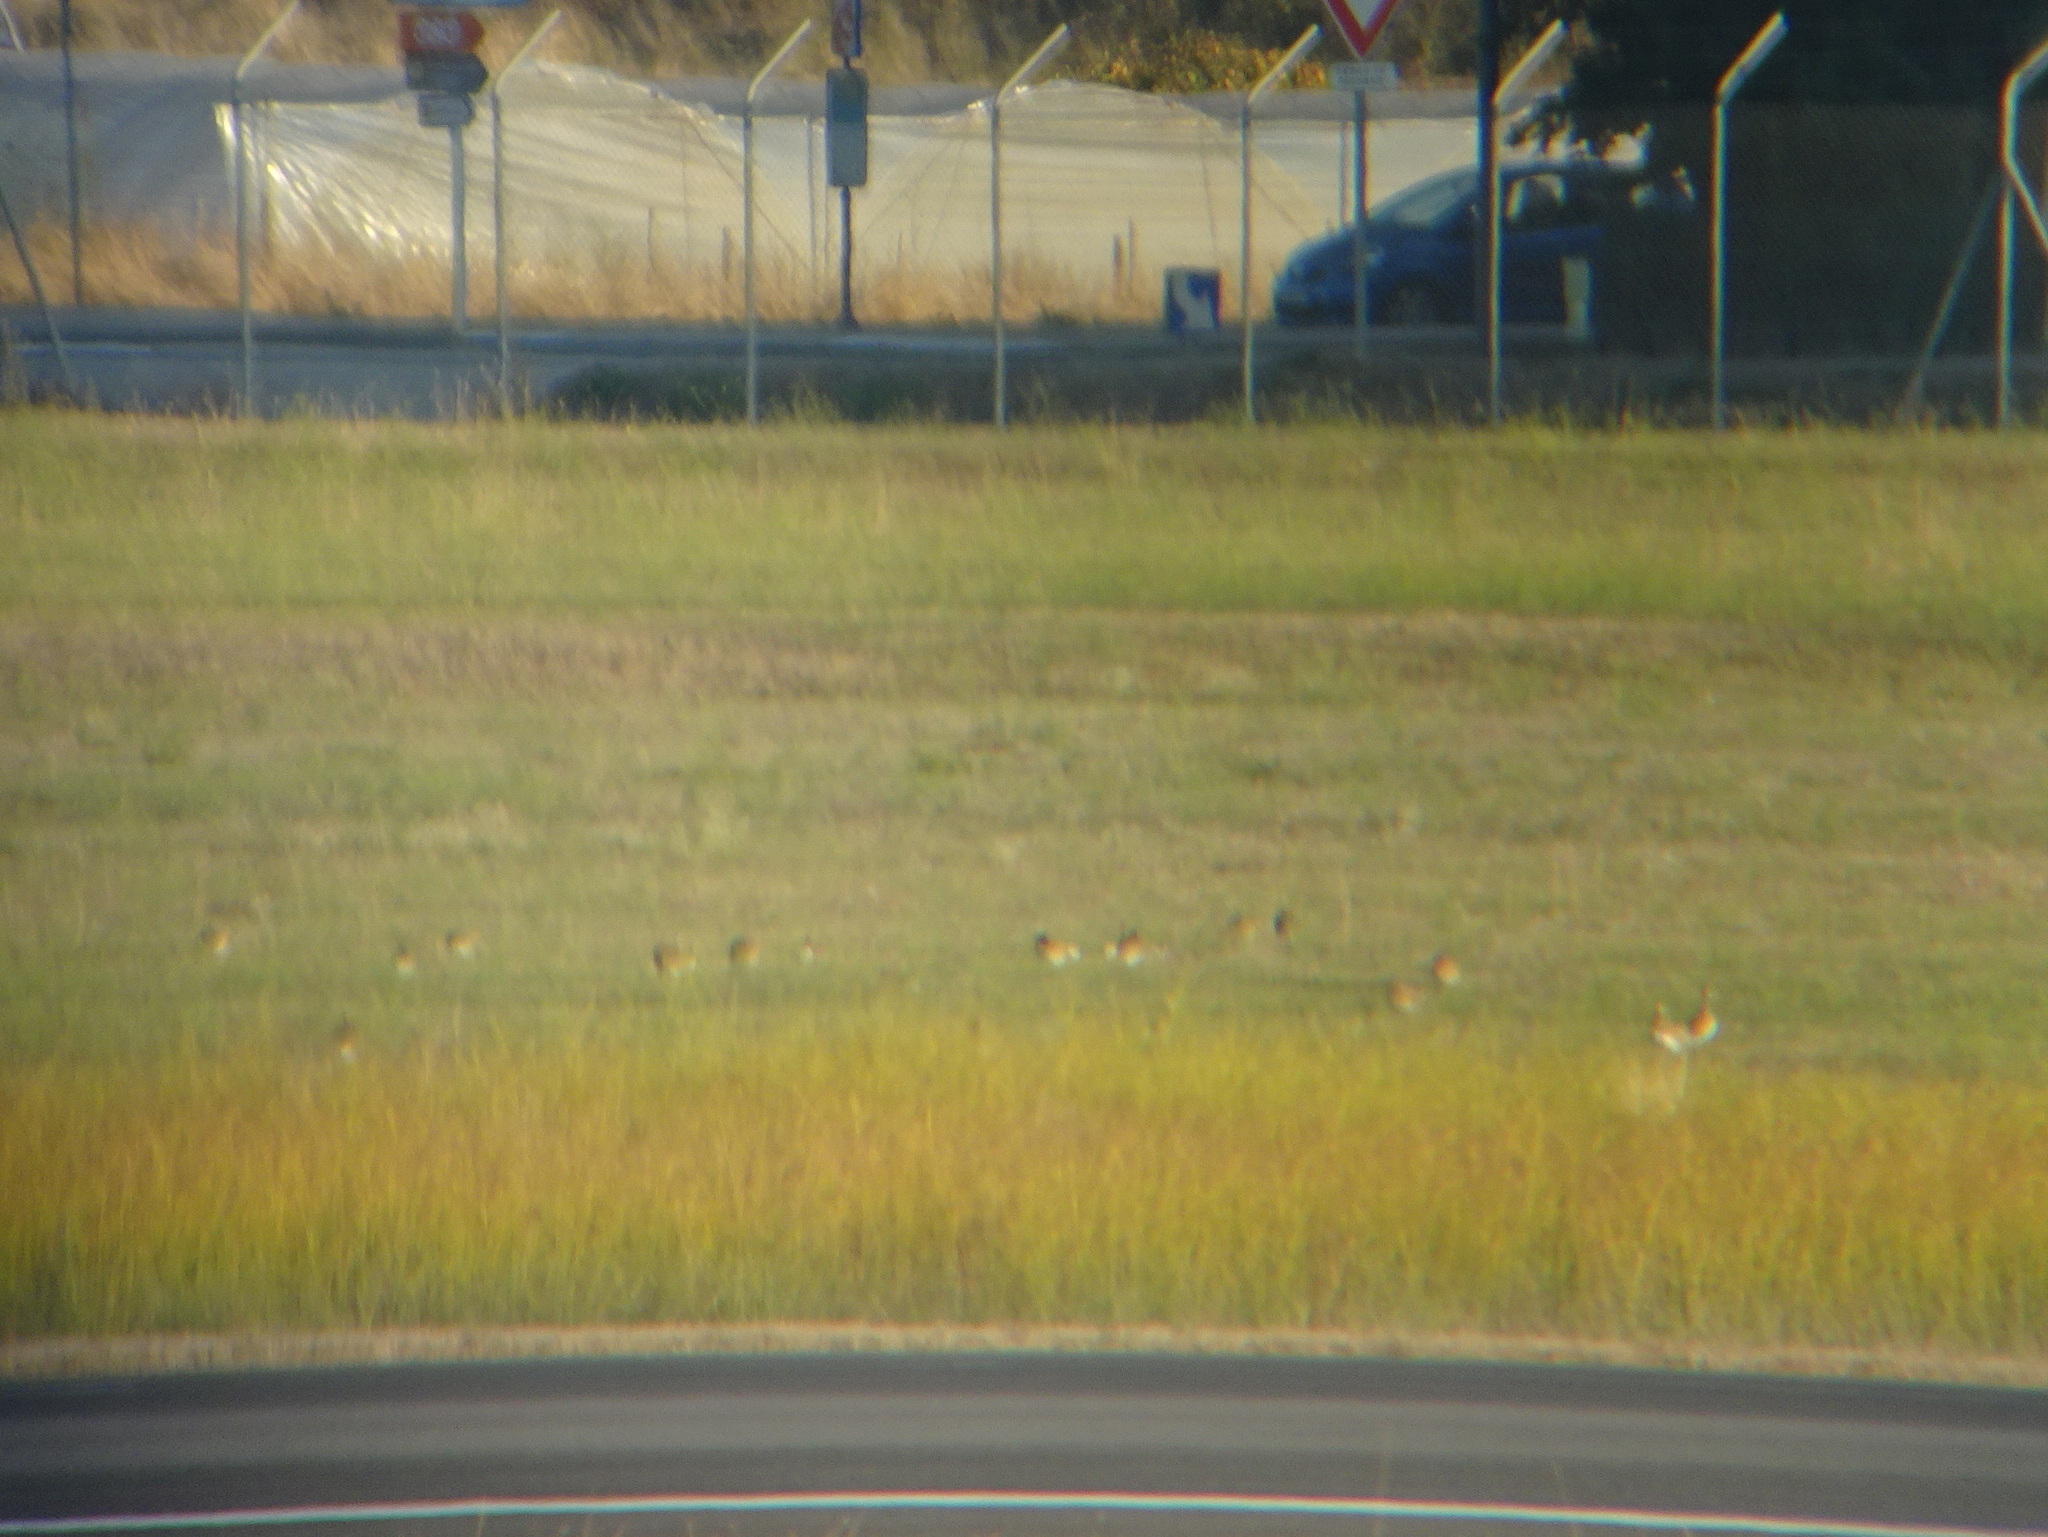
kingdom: Animalia
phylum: Chordata
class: Aves
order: Otidiformes
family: Otididae
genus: Tetrax
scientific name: Tetrax tetrax
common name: Little bustard
